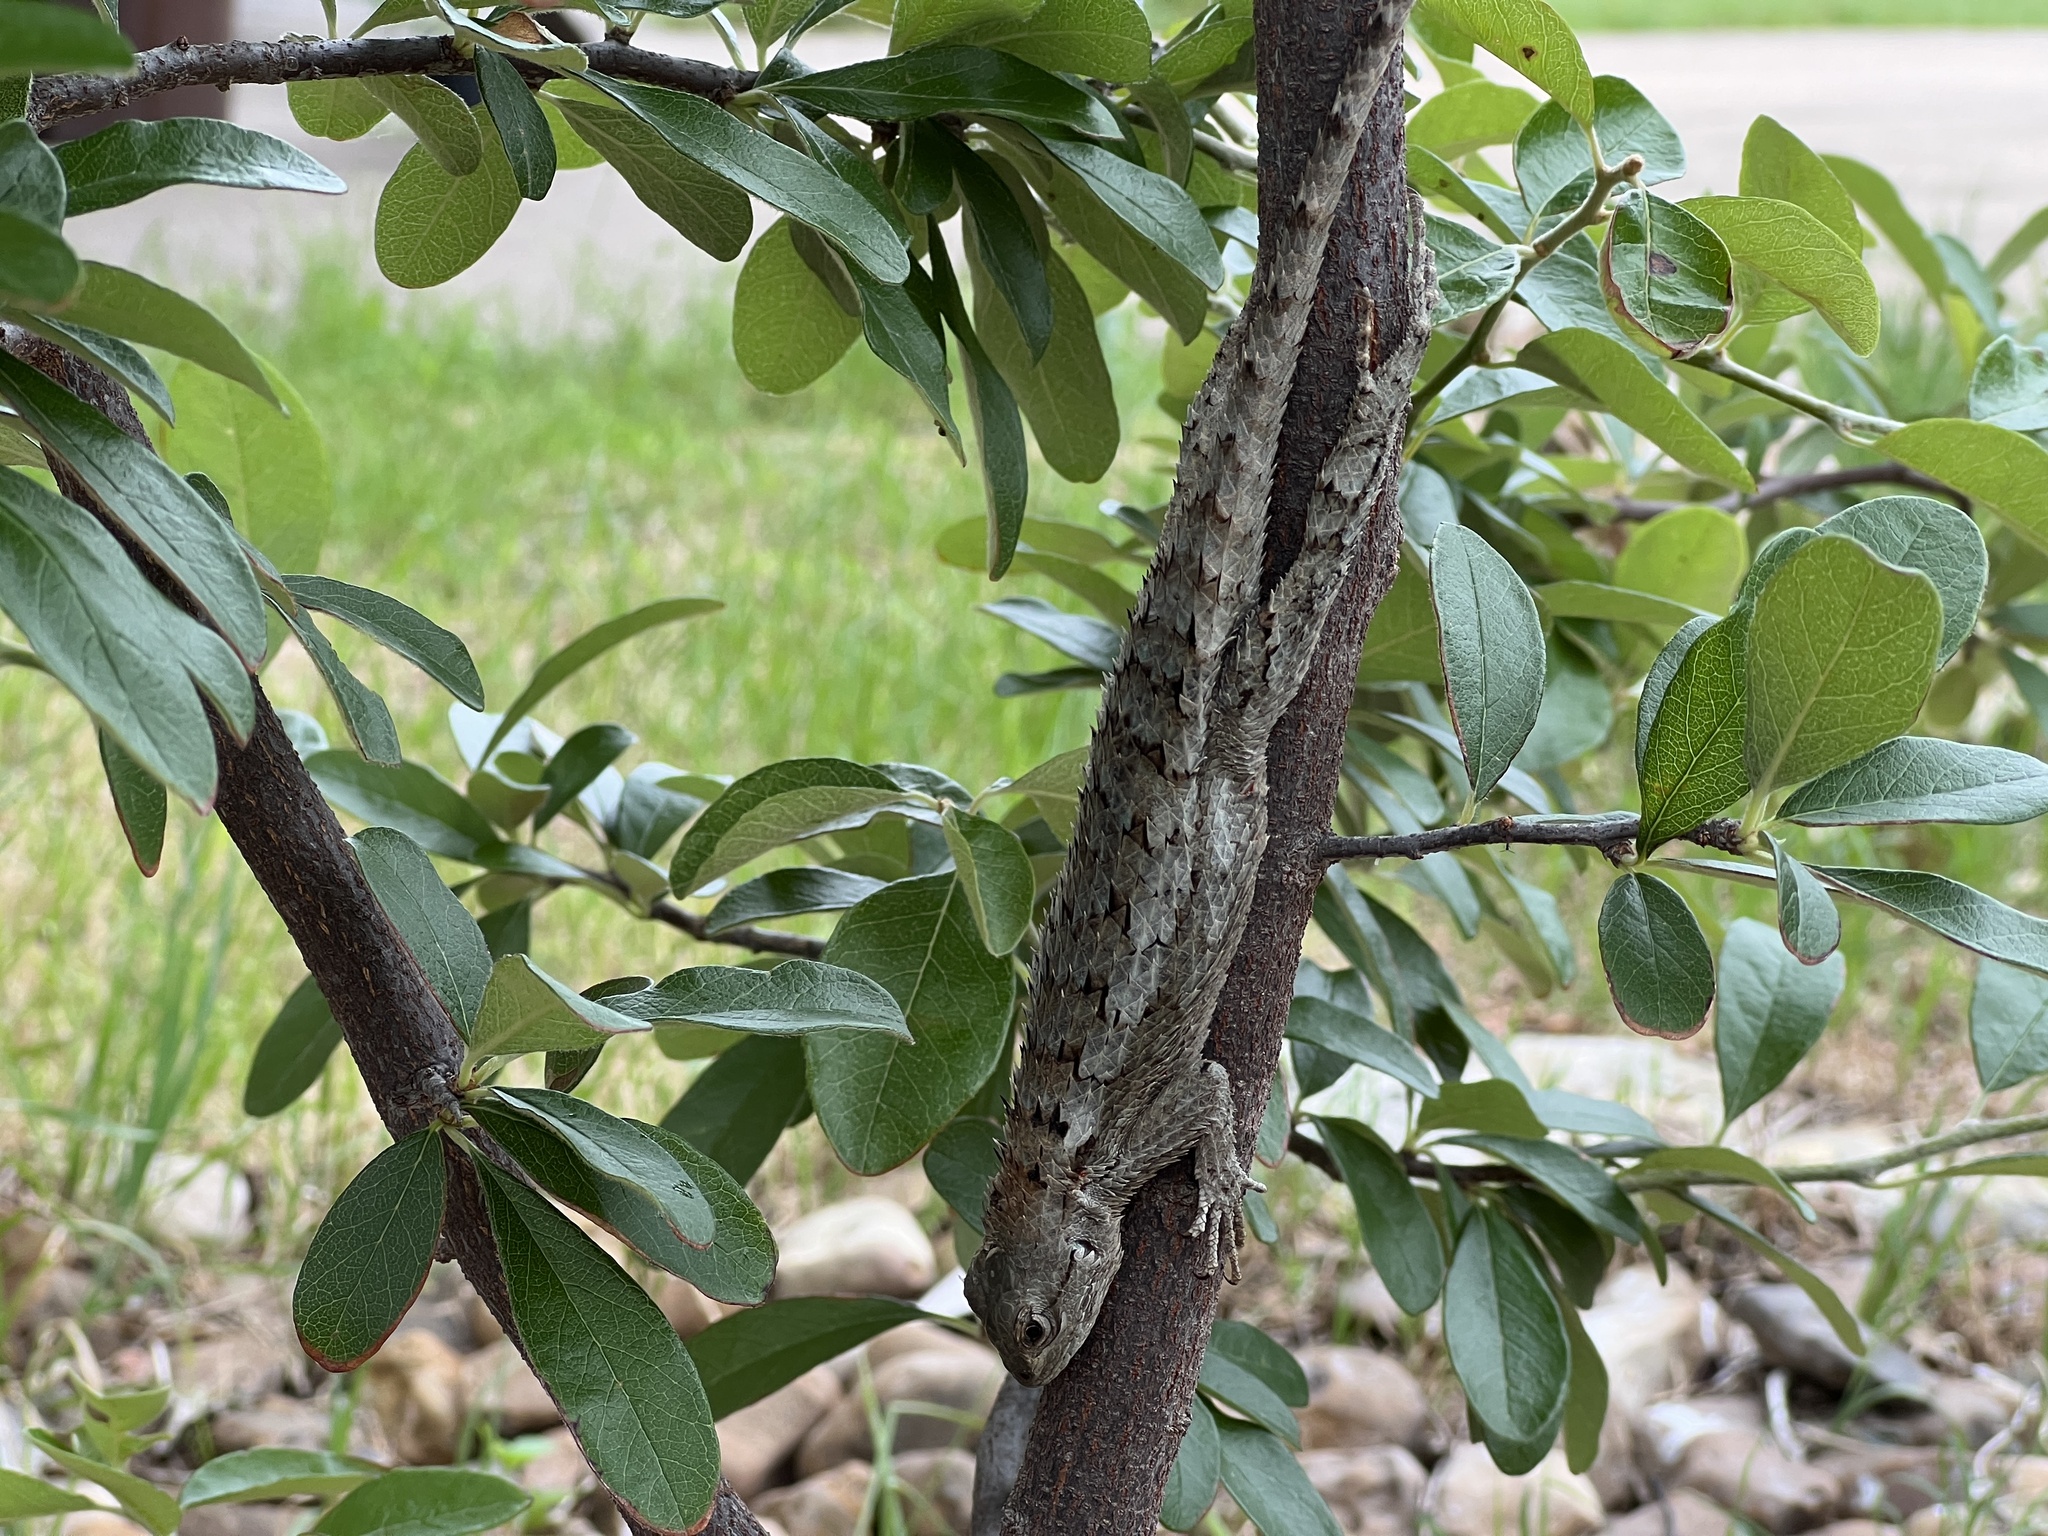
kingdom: Animalia
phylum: Chordata
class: Squamata
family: Phrynosomatidae
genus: Sceloporus
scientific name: Sceloporus olivaceus
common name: Texas spiny lizard
